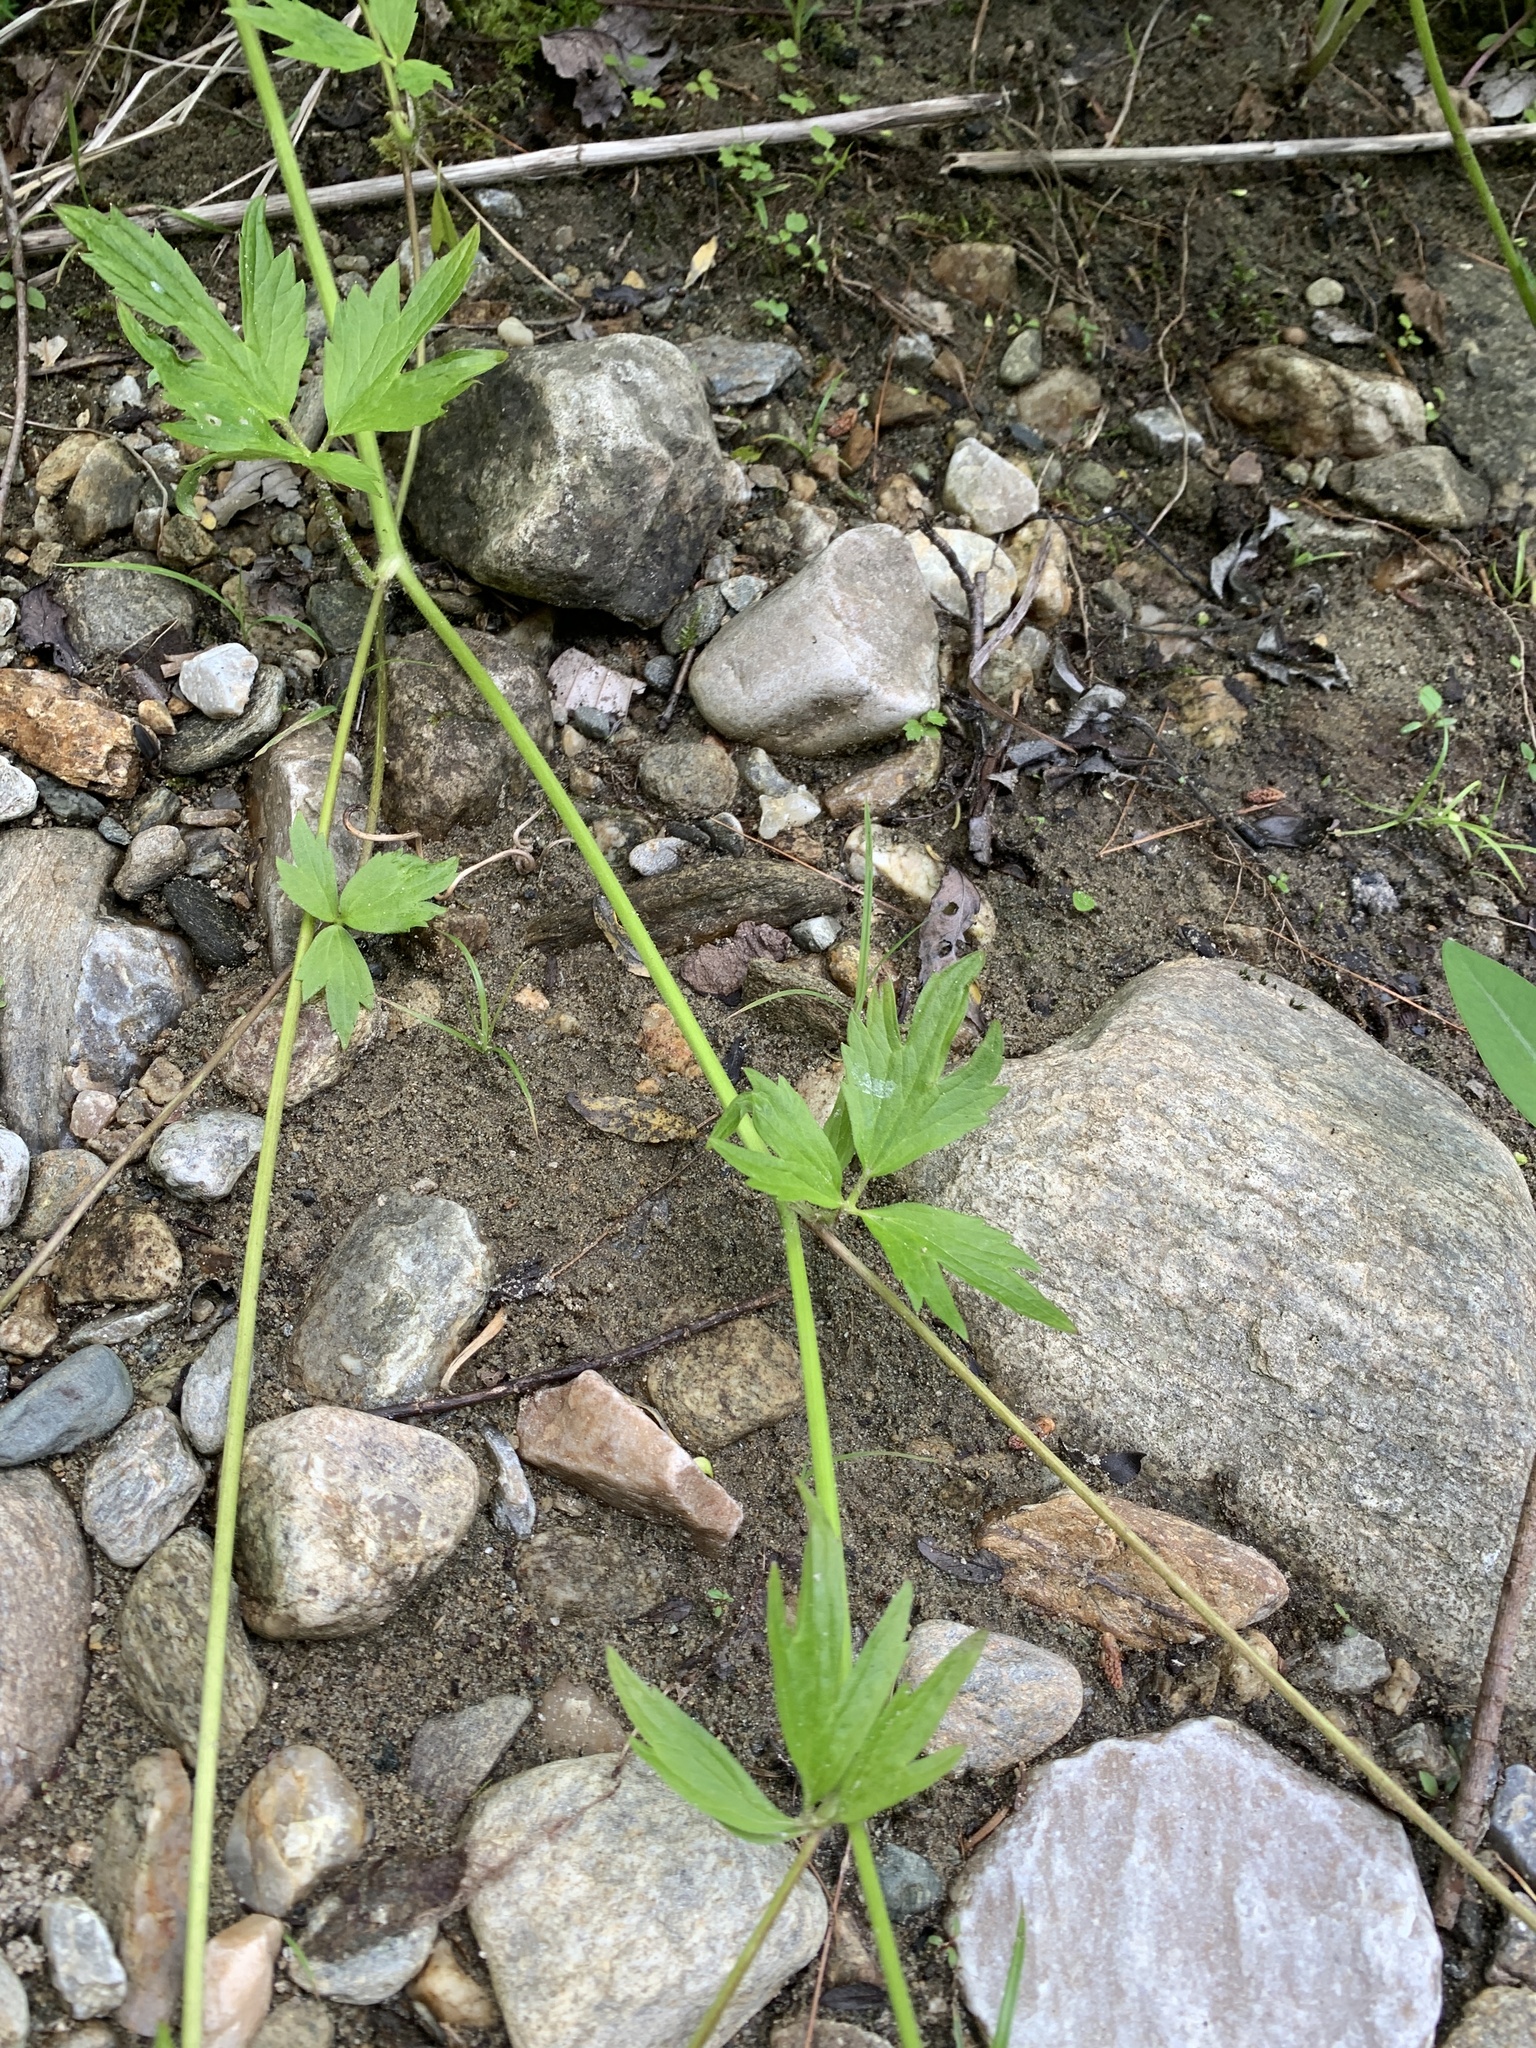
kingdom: Plantae
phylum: Tracheophyta
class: Magnoliopsida
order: Ranunculales
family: Ranunculaceae
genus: Ranunculus
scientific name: Ranunculus hispidus
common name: Bristly buttercup
